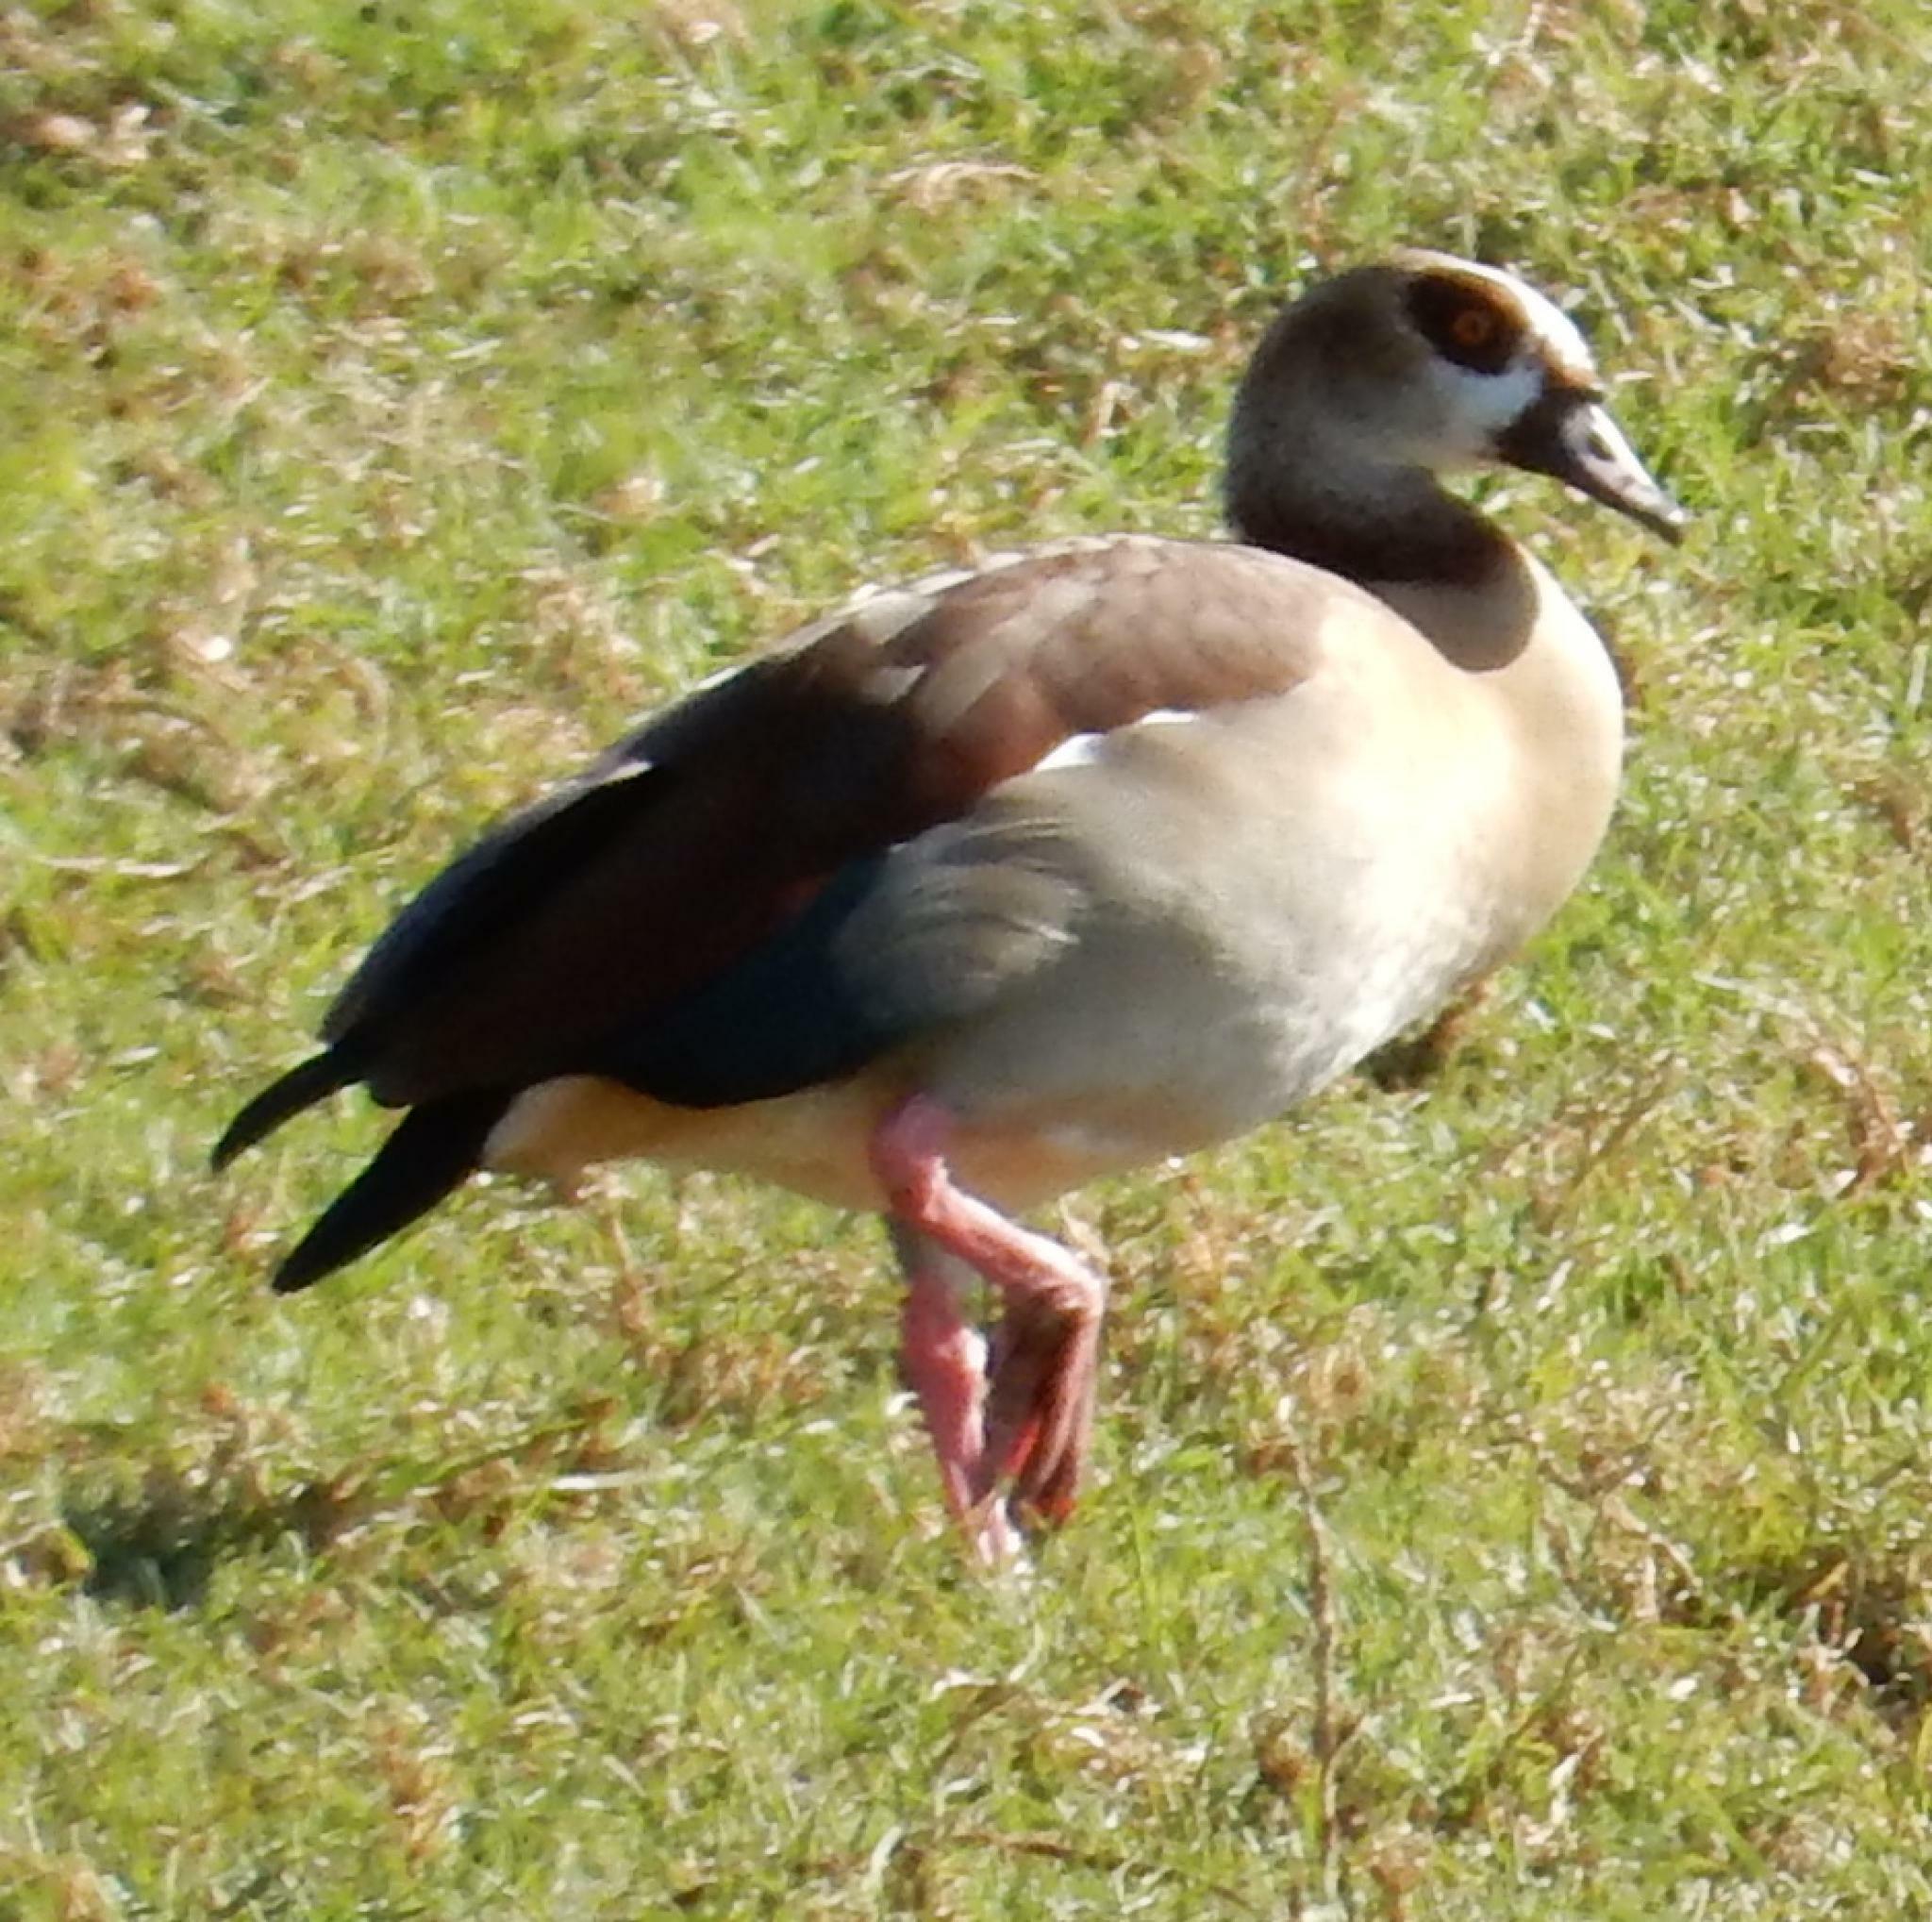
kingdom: Animalia
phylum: Chordata
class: Aves
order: Anseriformes
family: Anatidae
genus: Alopochen
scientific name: Alopochen aegyptiaca
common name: Egyptian goose
